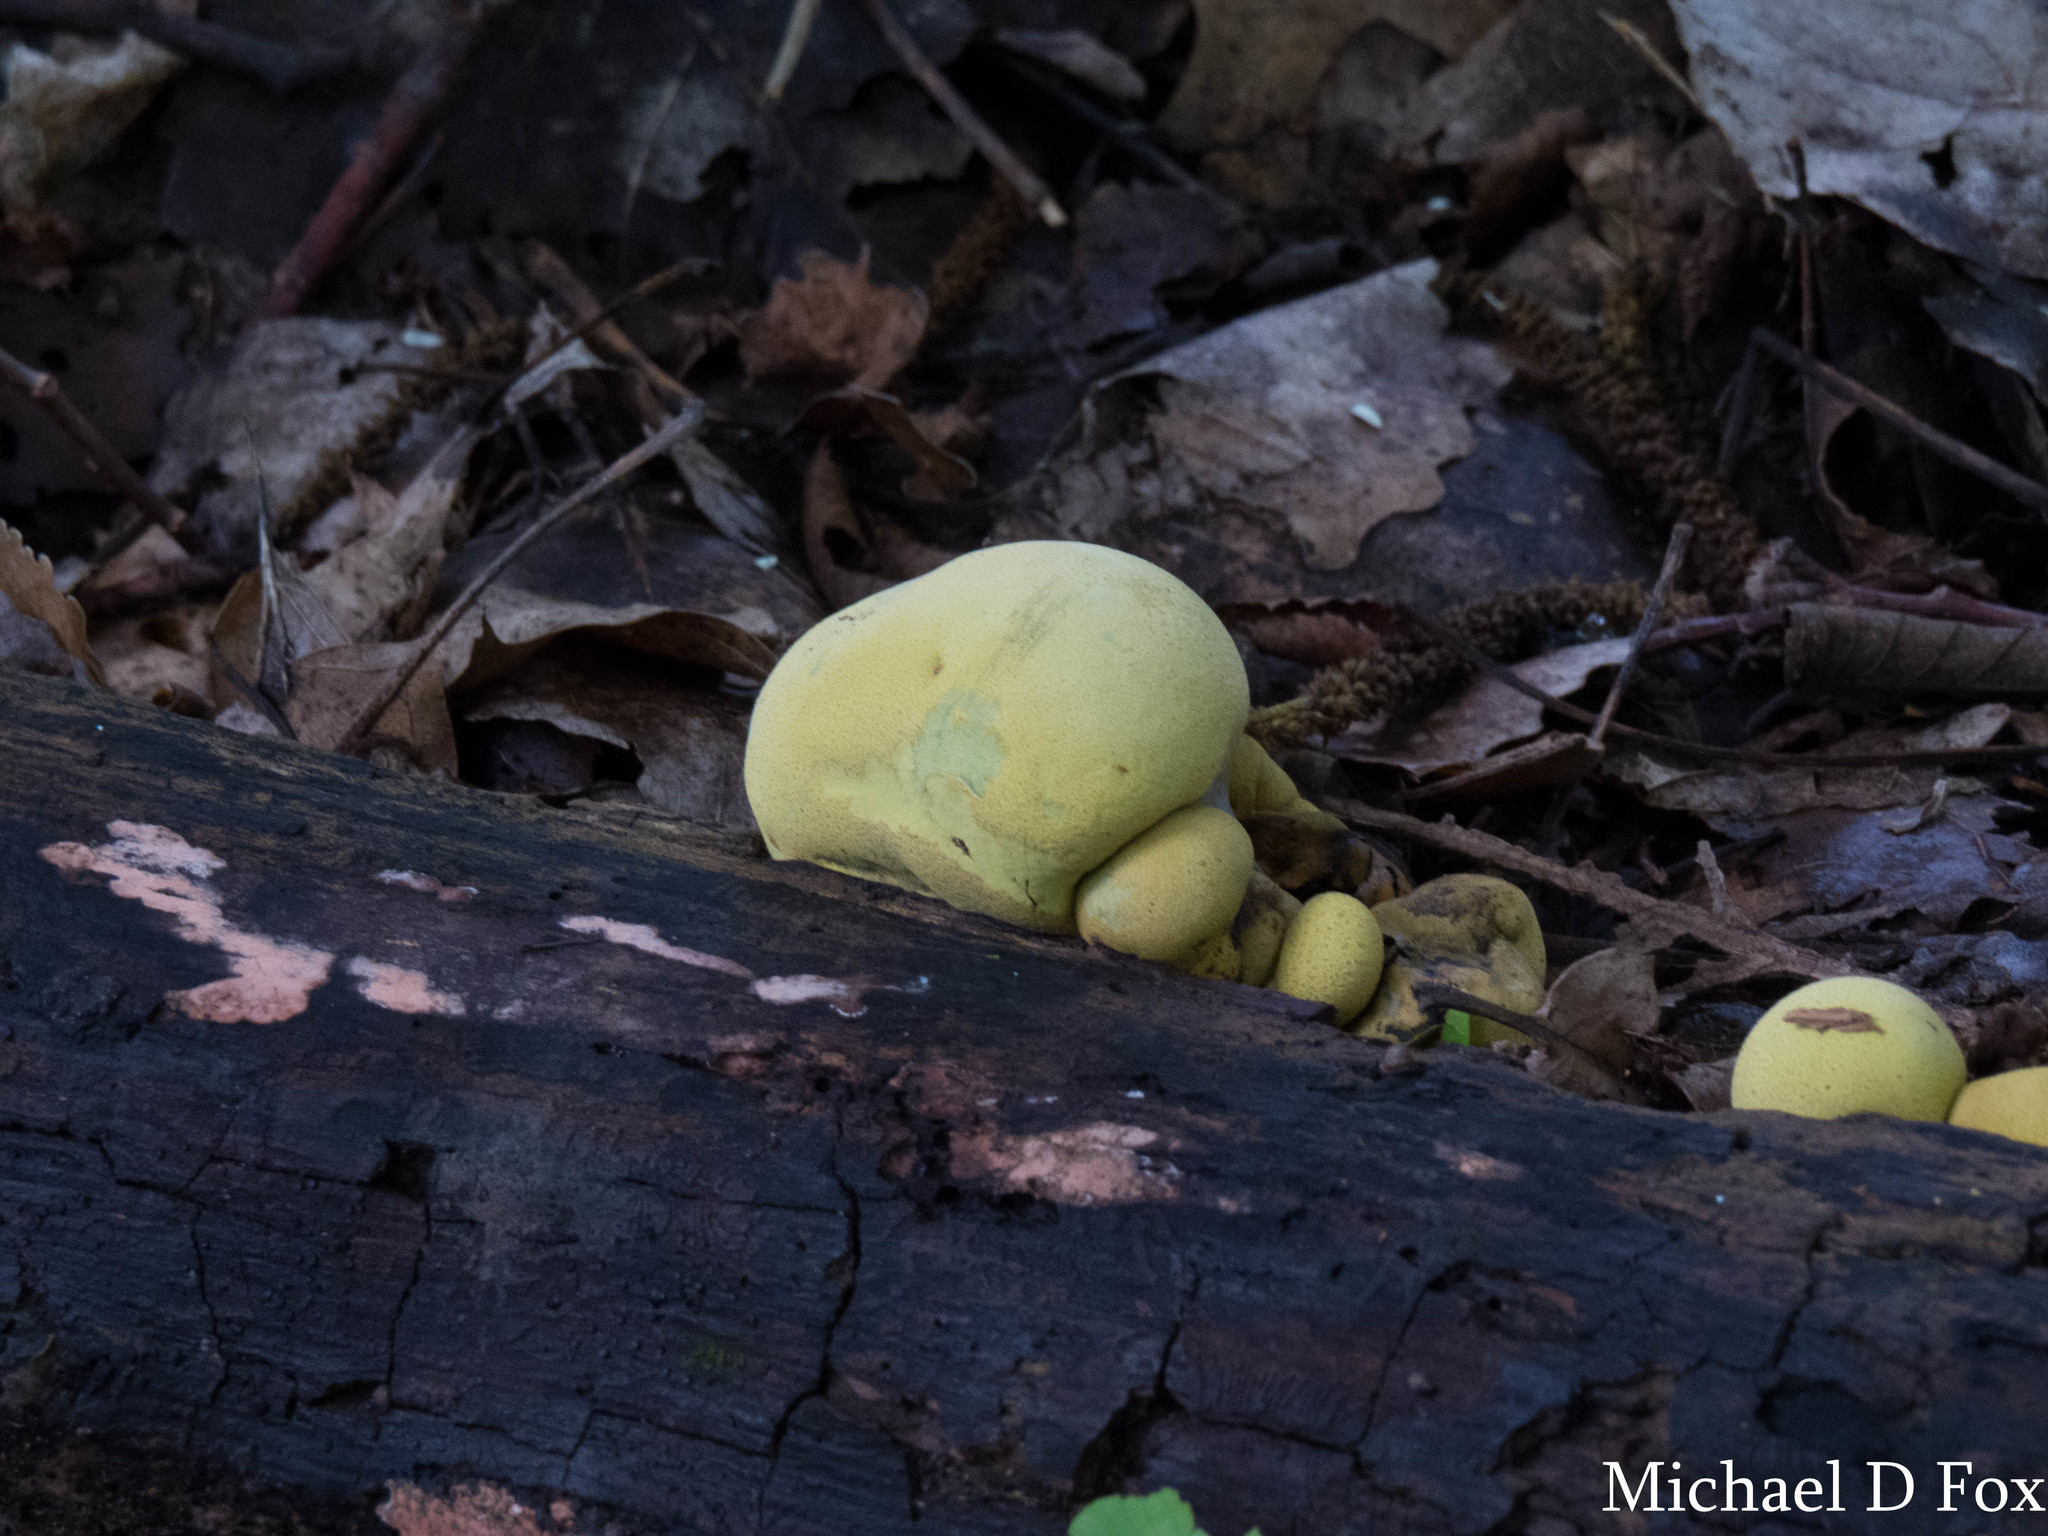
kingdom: Fungi
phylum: Ascomycota
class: Sordariomycetes
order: Xylariales
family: Hypoxylaceae
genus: Entonaema
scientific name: Entonaema liquescens
